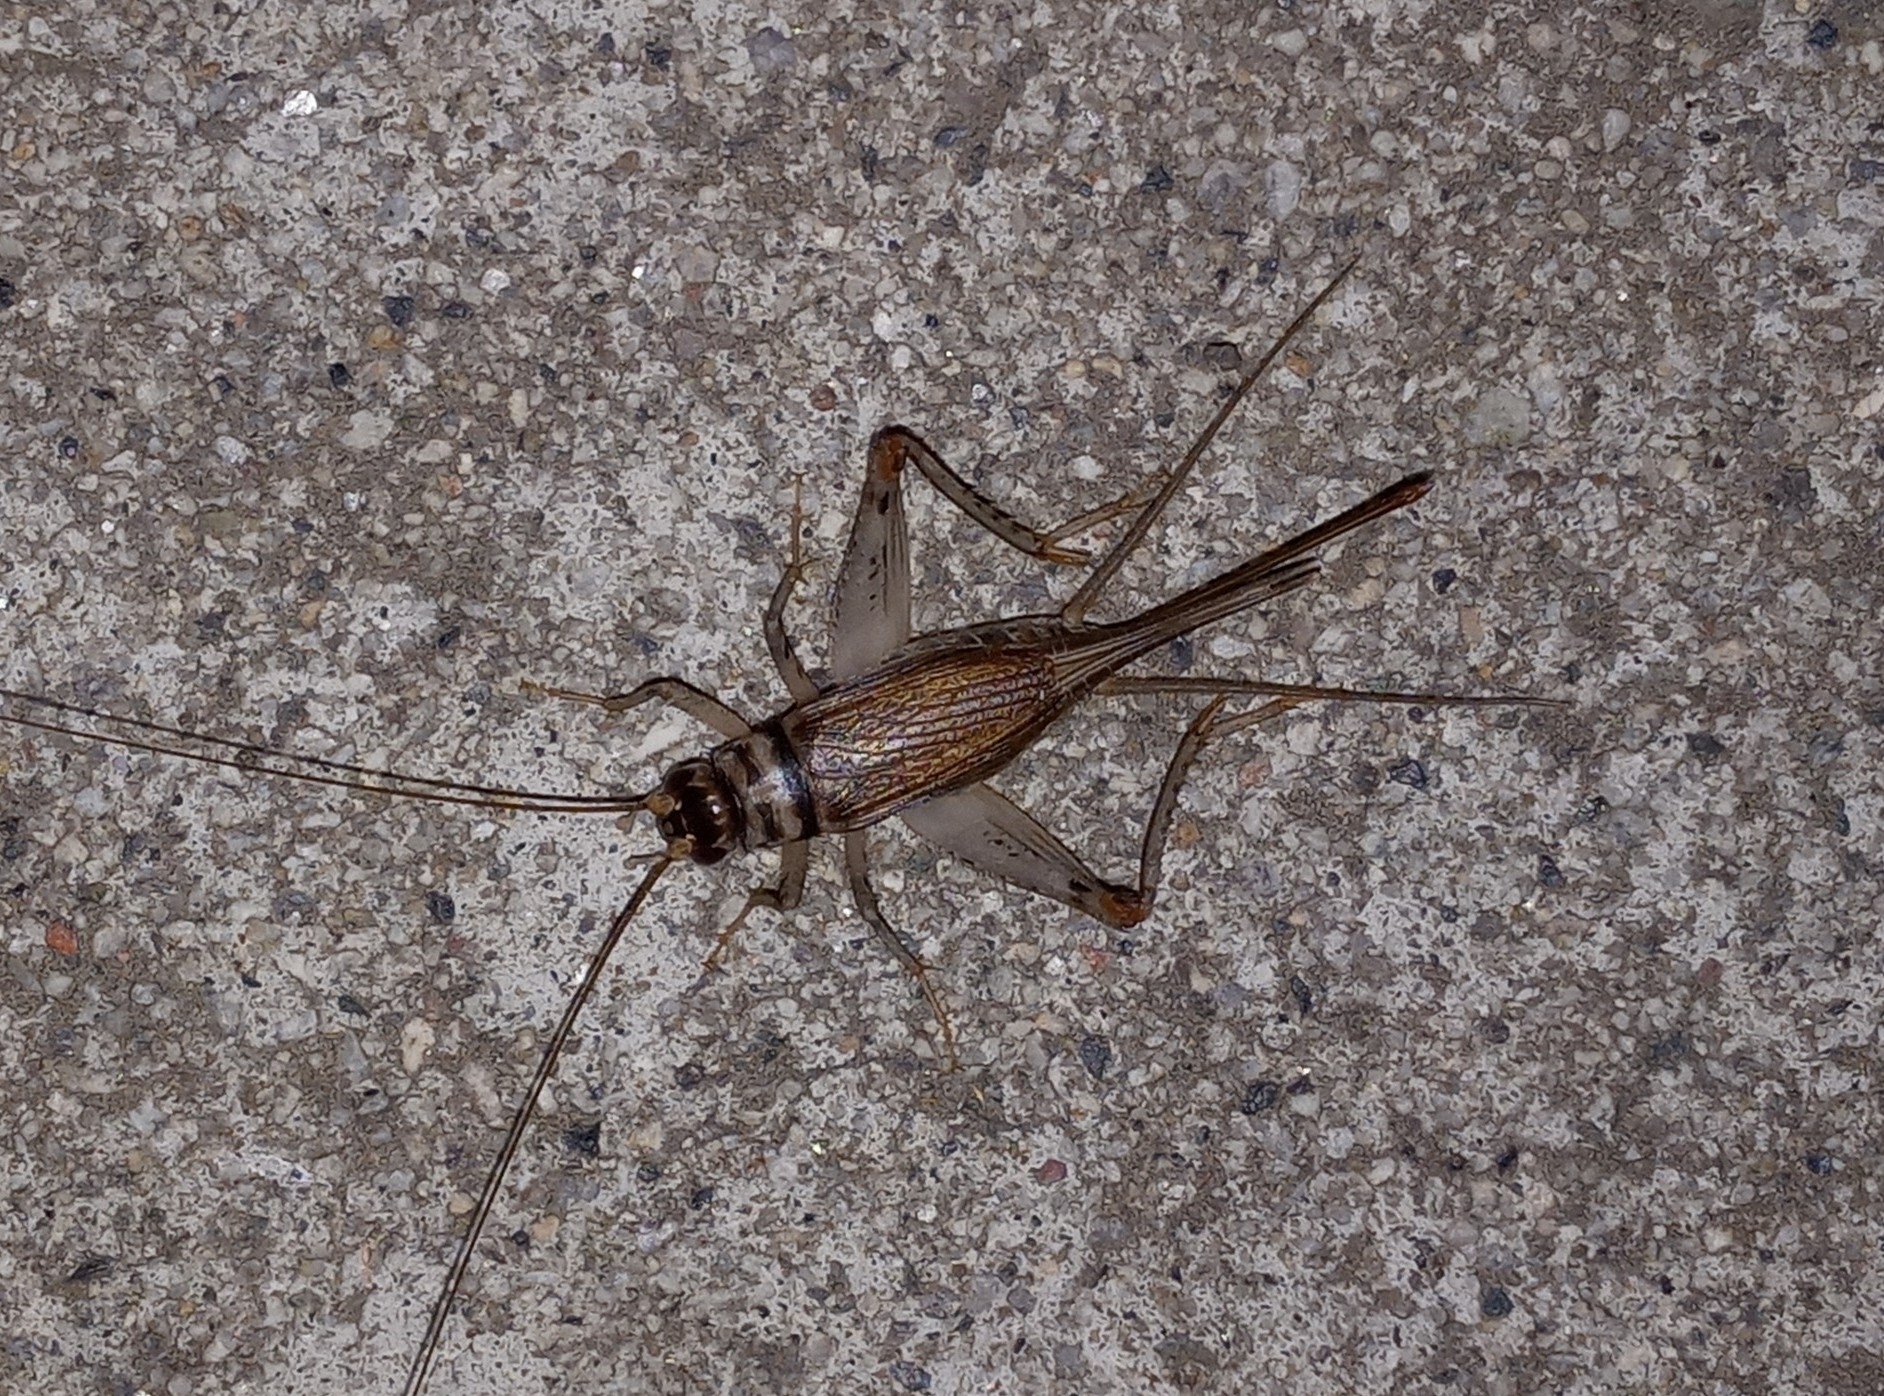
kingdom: Animalia
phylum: Arthropoda
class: Insecta
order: Orthoptera
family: Gryllidae
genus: Gryllodes
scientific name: Gryllodes sigillatus
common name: Tropical house cricket
